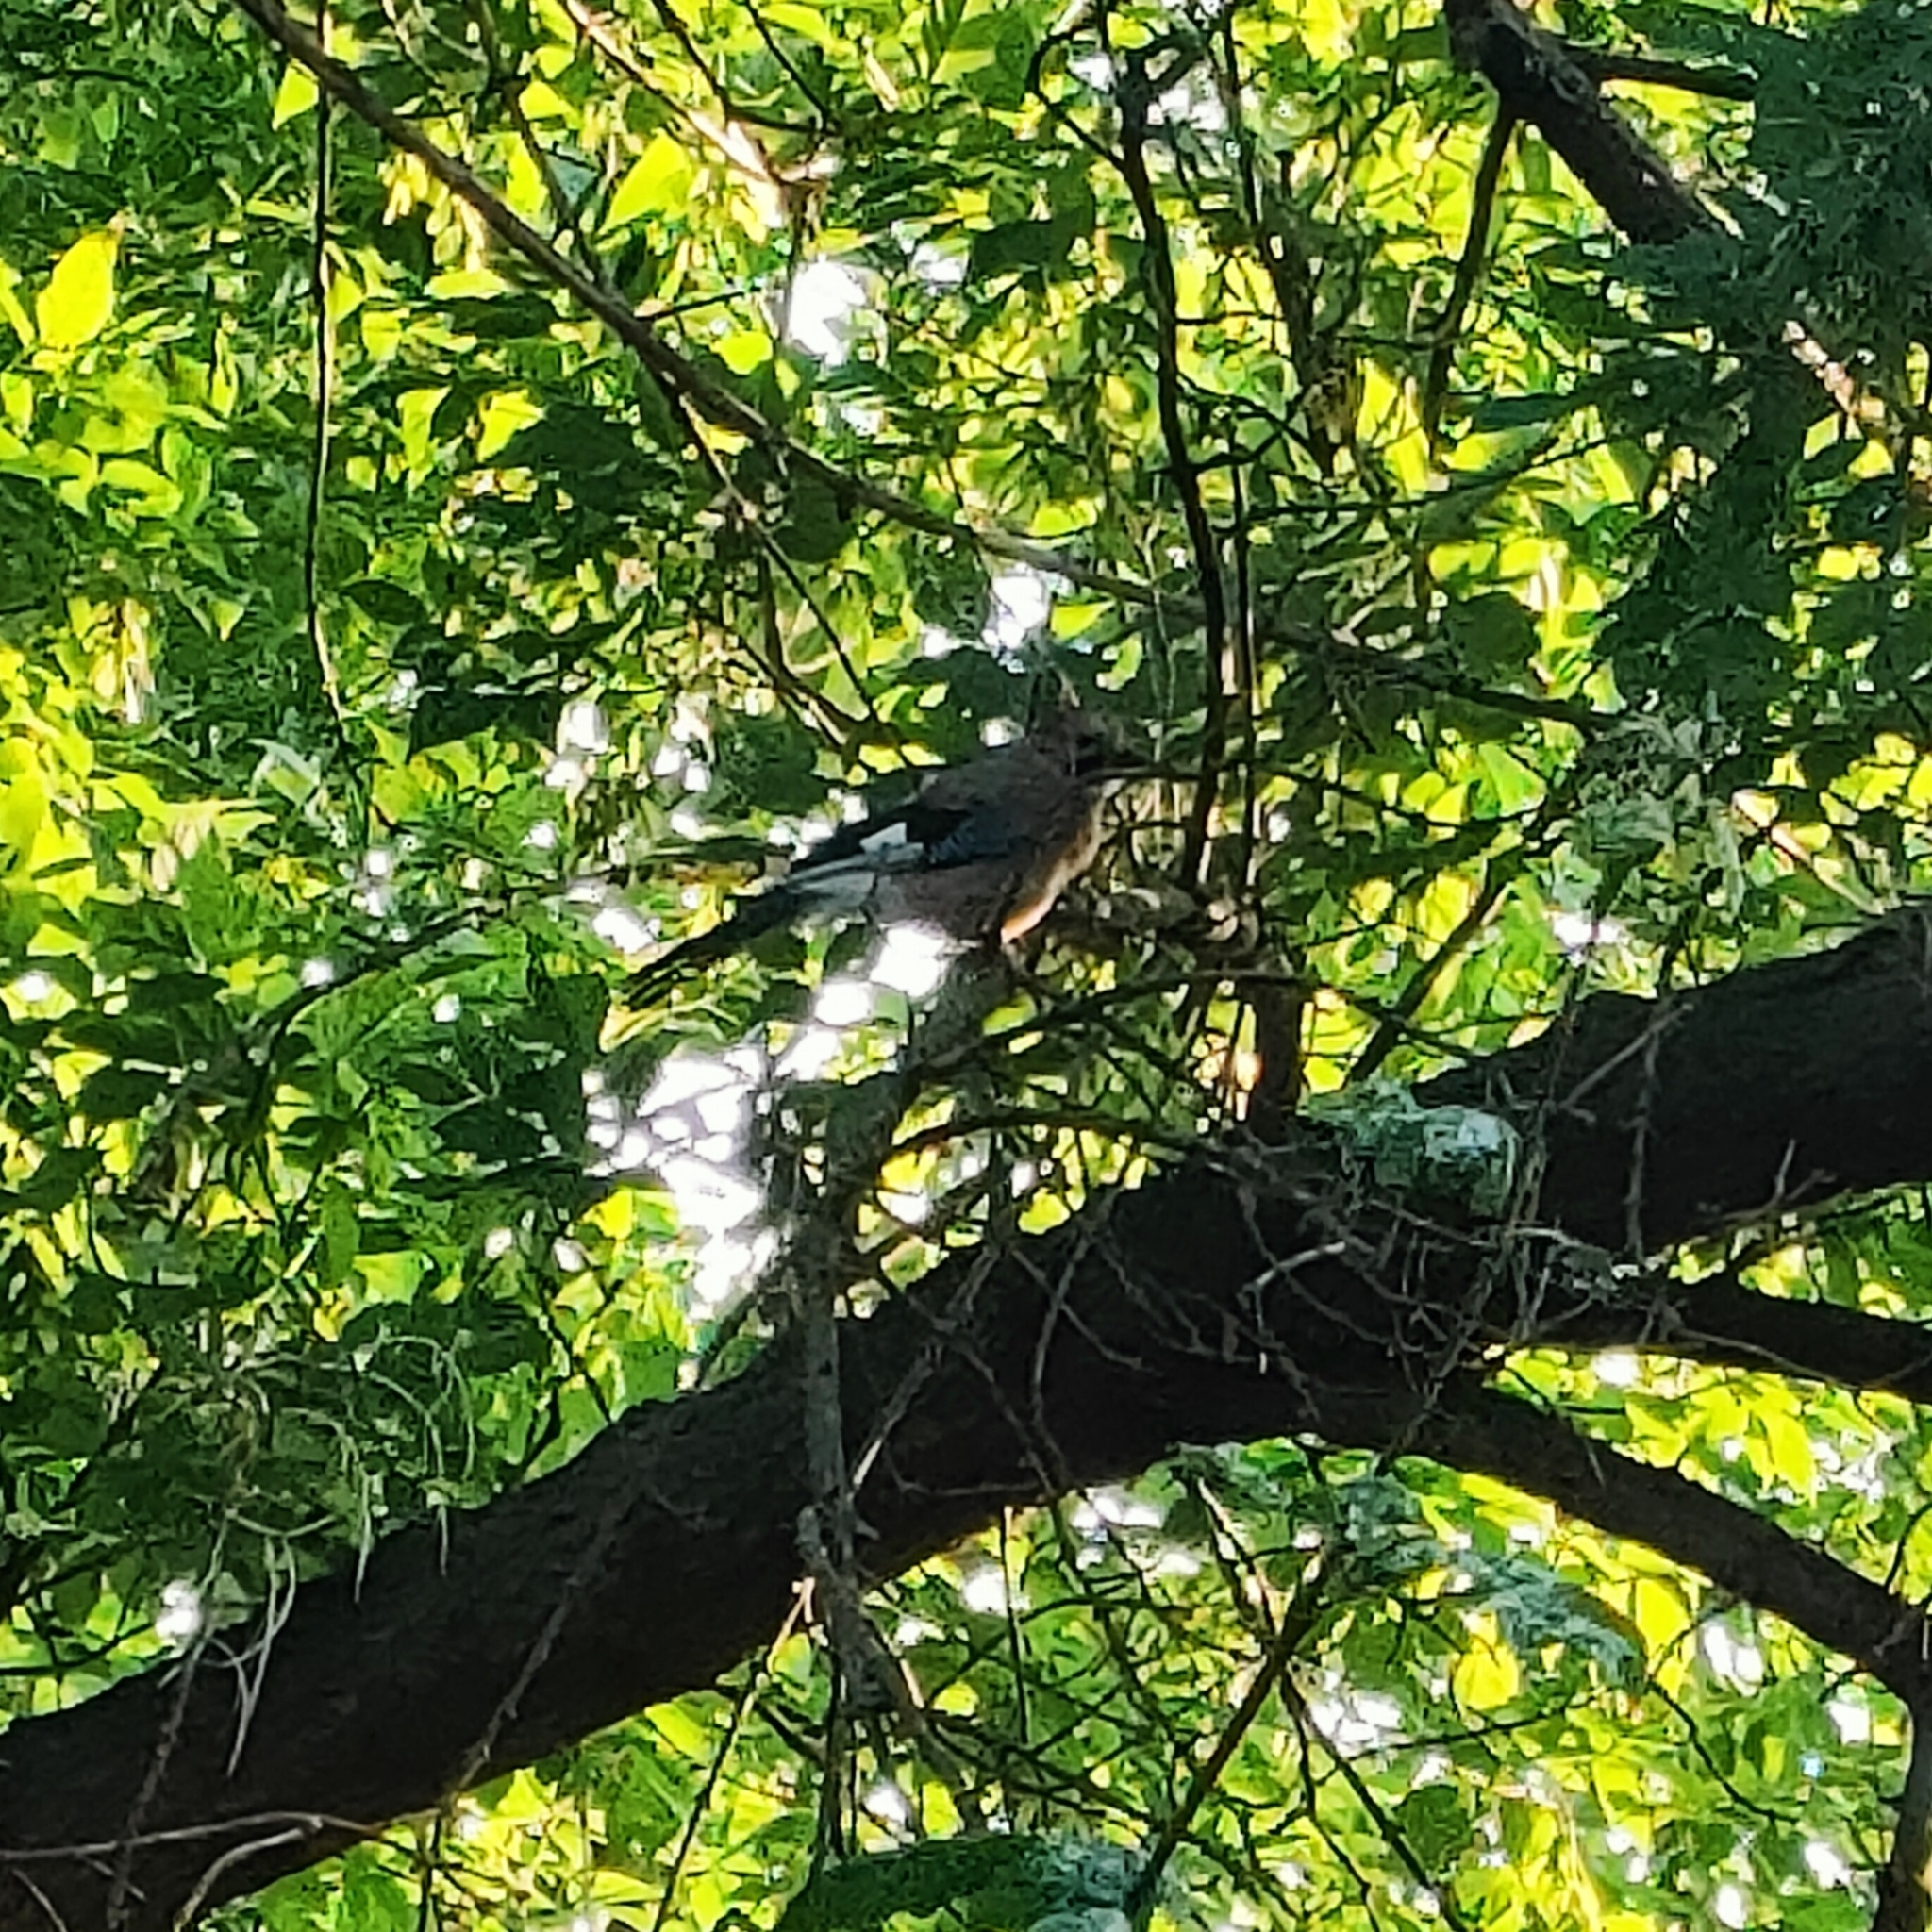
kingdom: Animalia
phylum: Chordata
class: Aves
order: Passeriformes
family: Corvidae
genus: Garrulus
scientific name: Garrulus glandarius
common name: Eurasian jay
